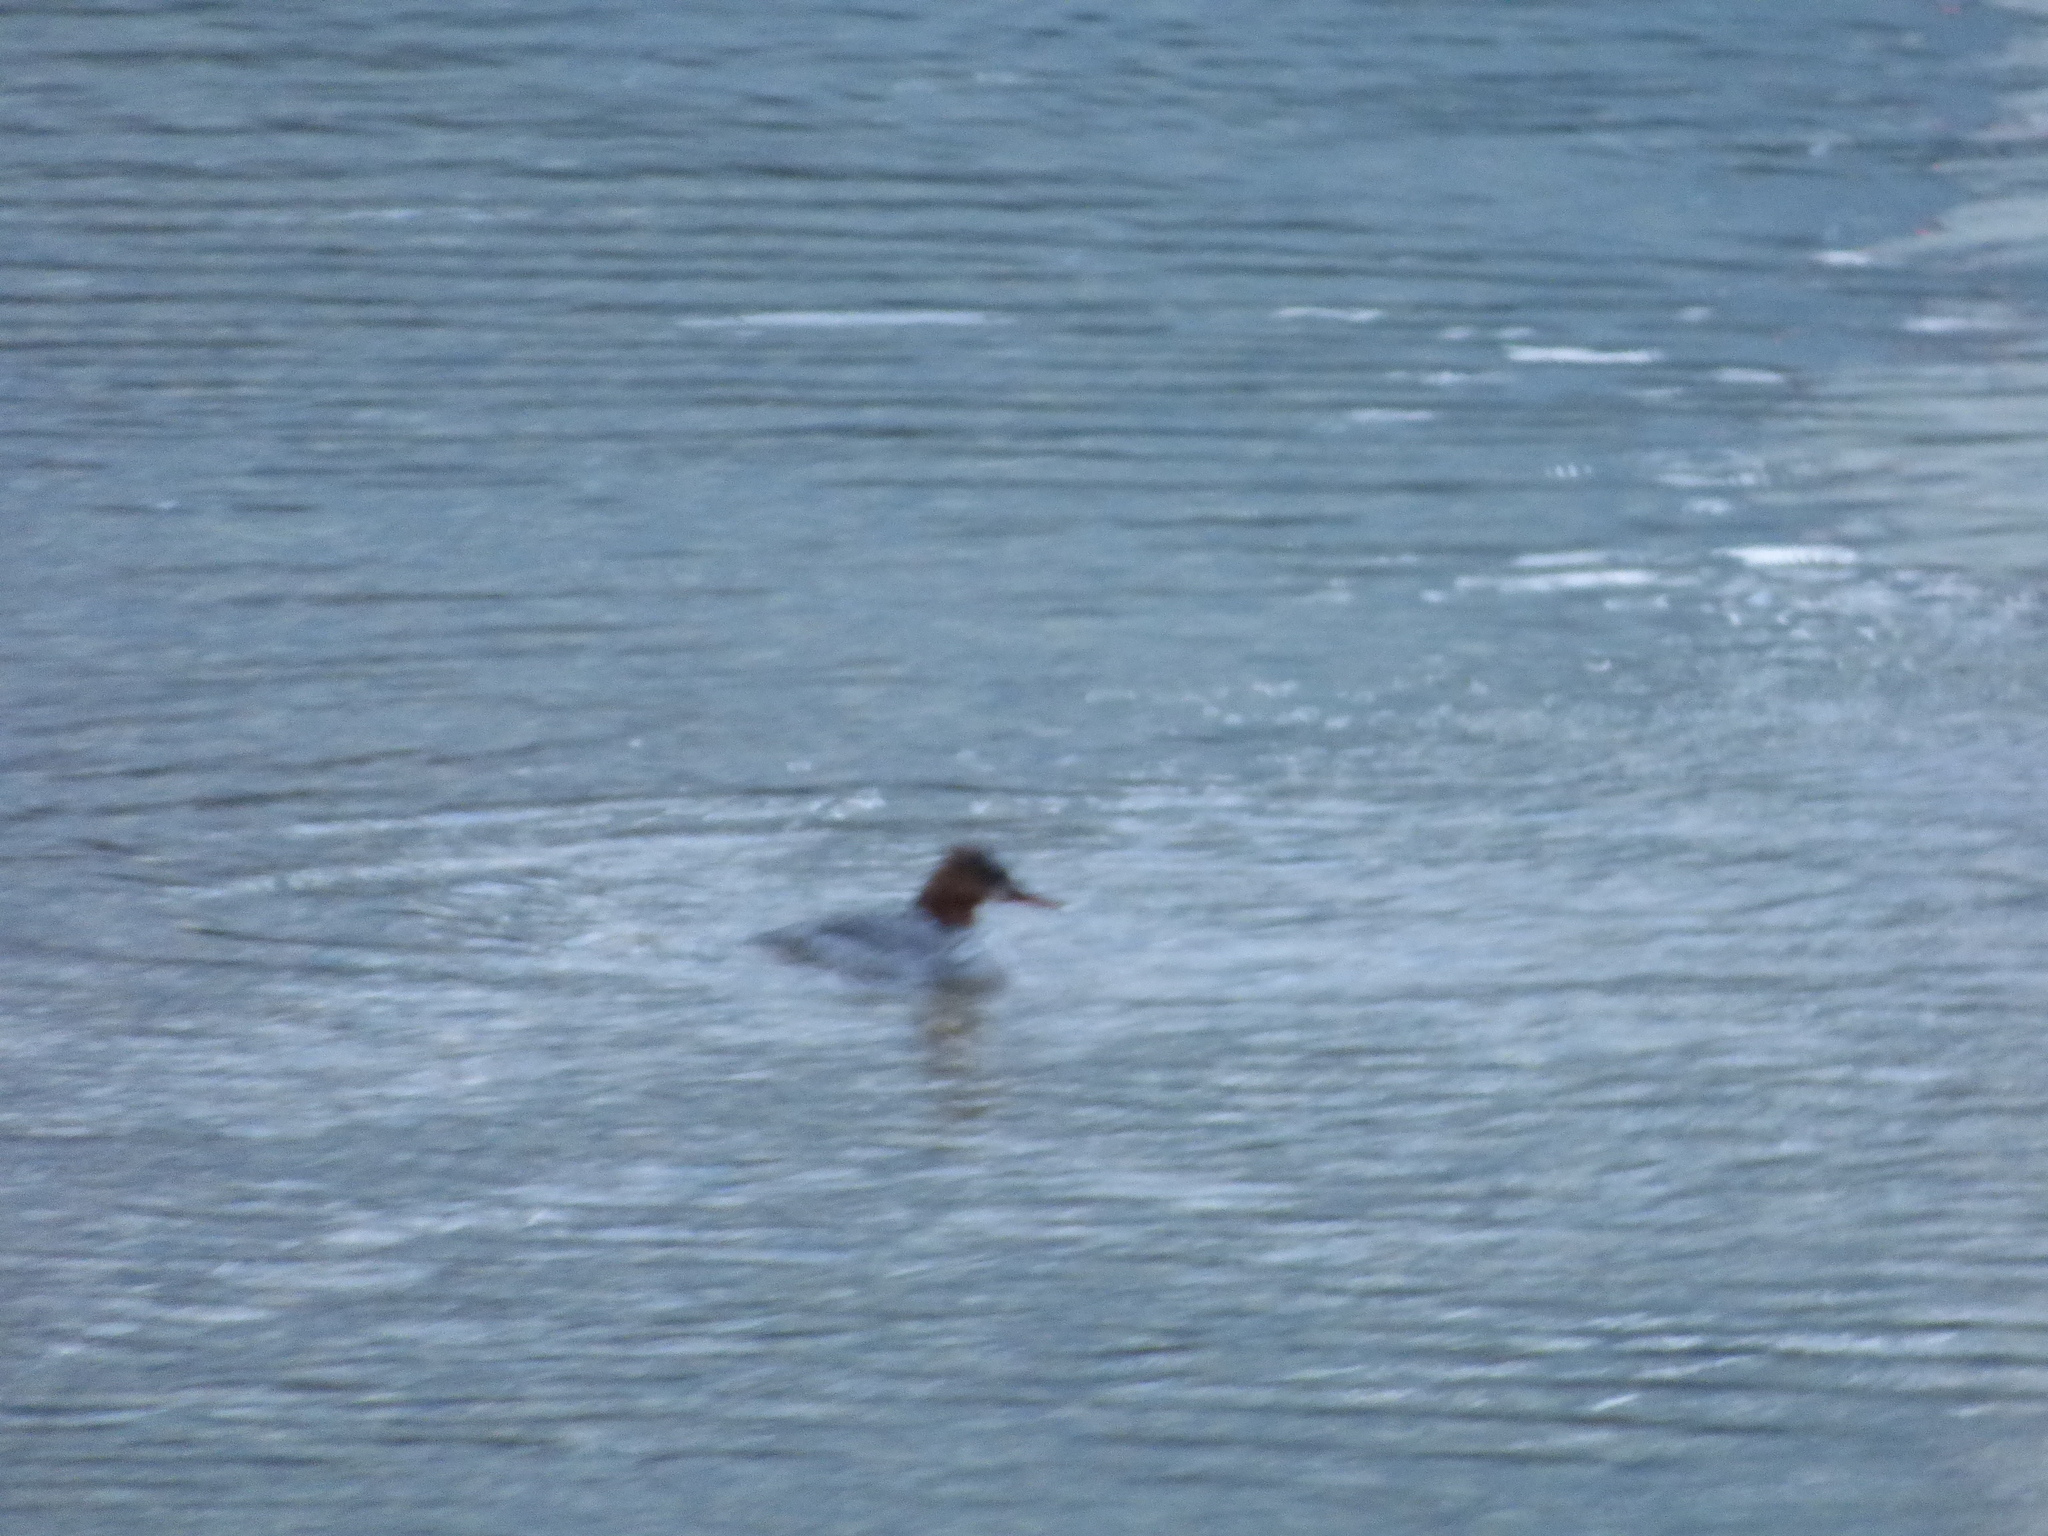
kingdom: Animalia
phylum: Chordata
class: Aves
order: Anseriformes
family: Anatidae
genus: Mergus
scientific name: Mergus merganser
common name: Common merganser
